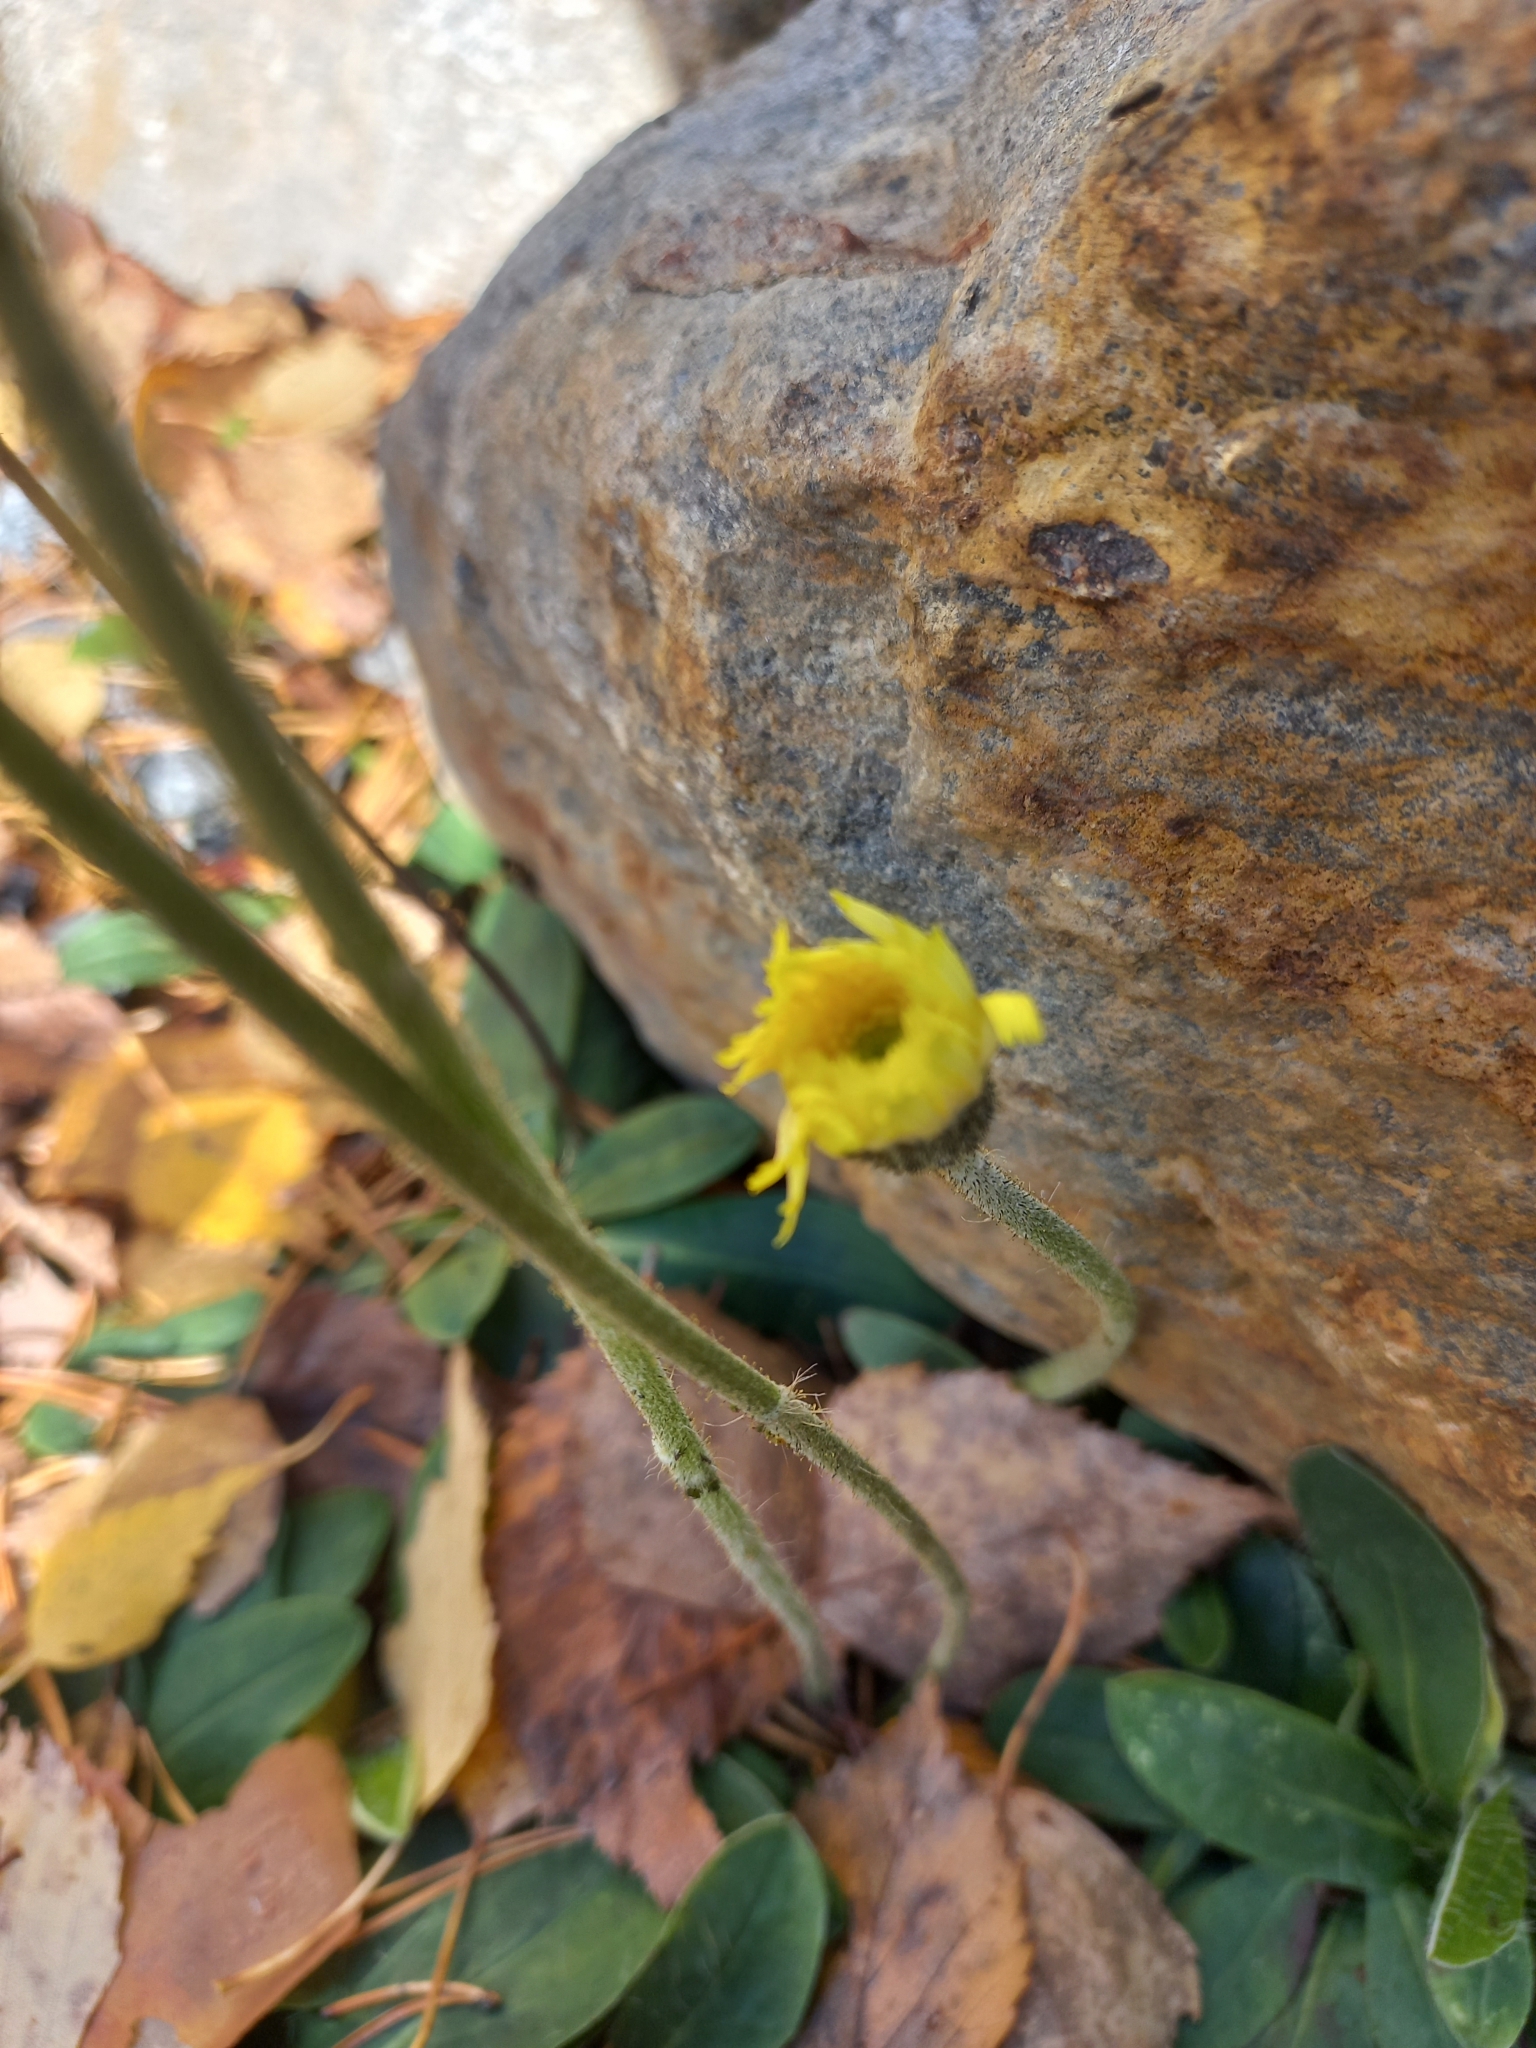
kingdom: Plantae
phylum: Tracheophyta
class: Magnoliopsida
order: Asterales
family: Asteraceae
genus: Pilosella
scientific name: Pilosella officinarum
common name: Mouse-ear hawkweed
